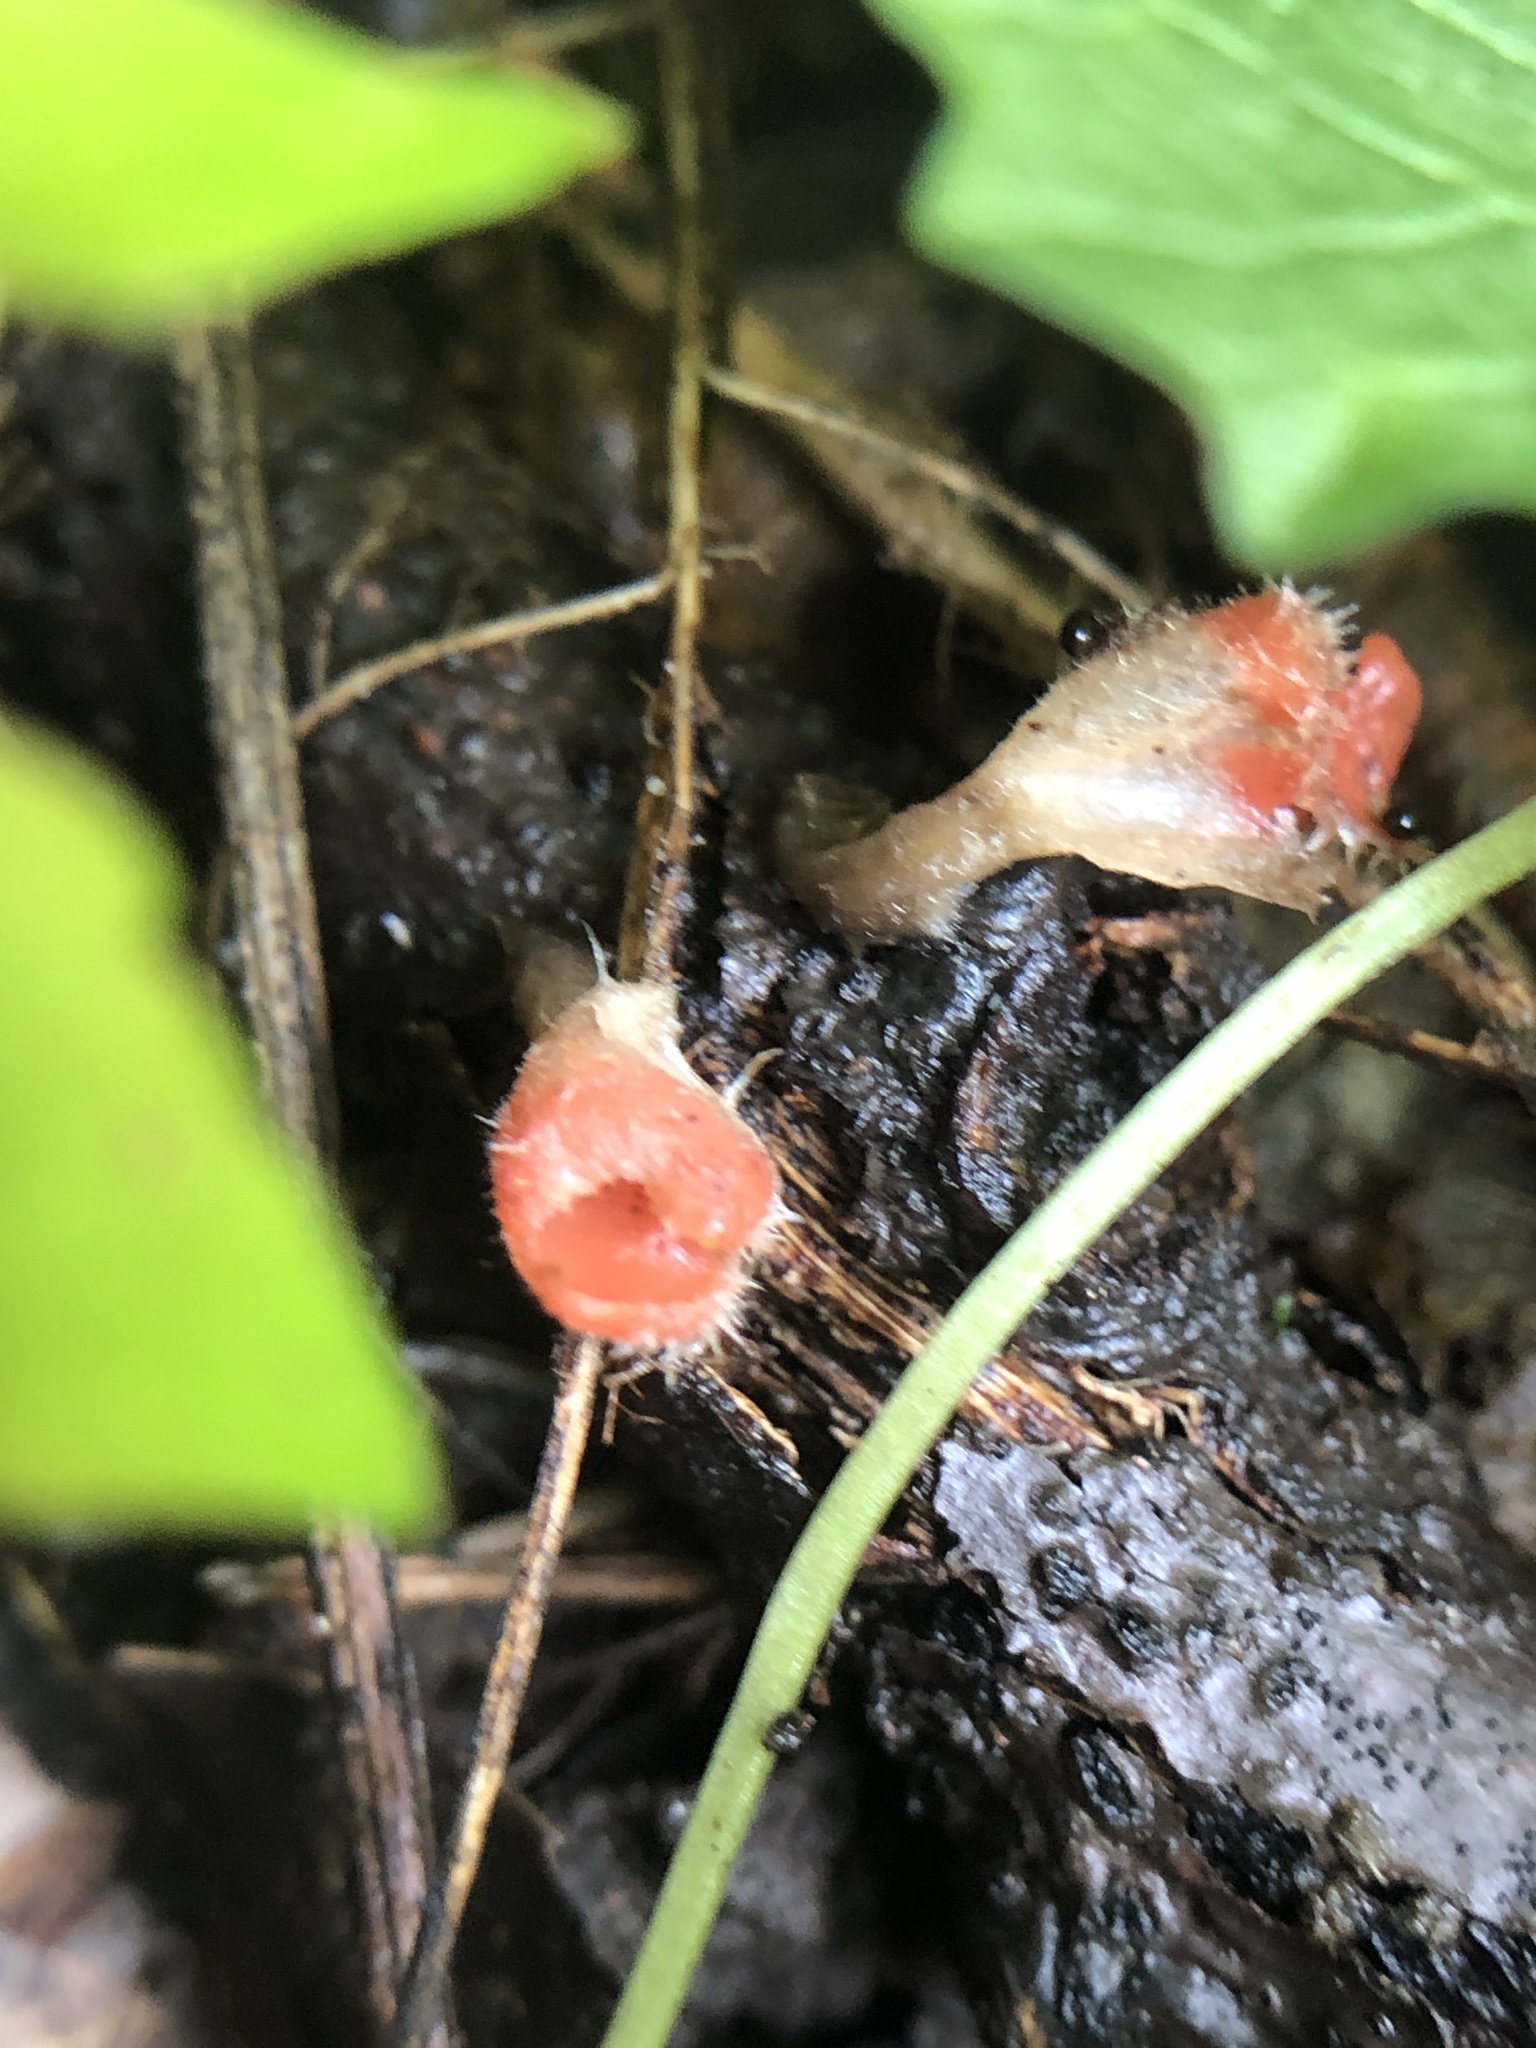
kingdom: Fungi
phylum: Ascomycota
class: Pezizomycetes
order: Pezizales
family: Sarcoscyphaceae
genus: Microstoma
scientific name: Microstoma floccosum
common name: Pink fringed faery cup
